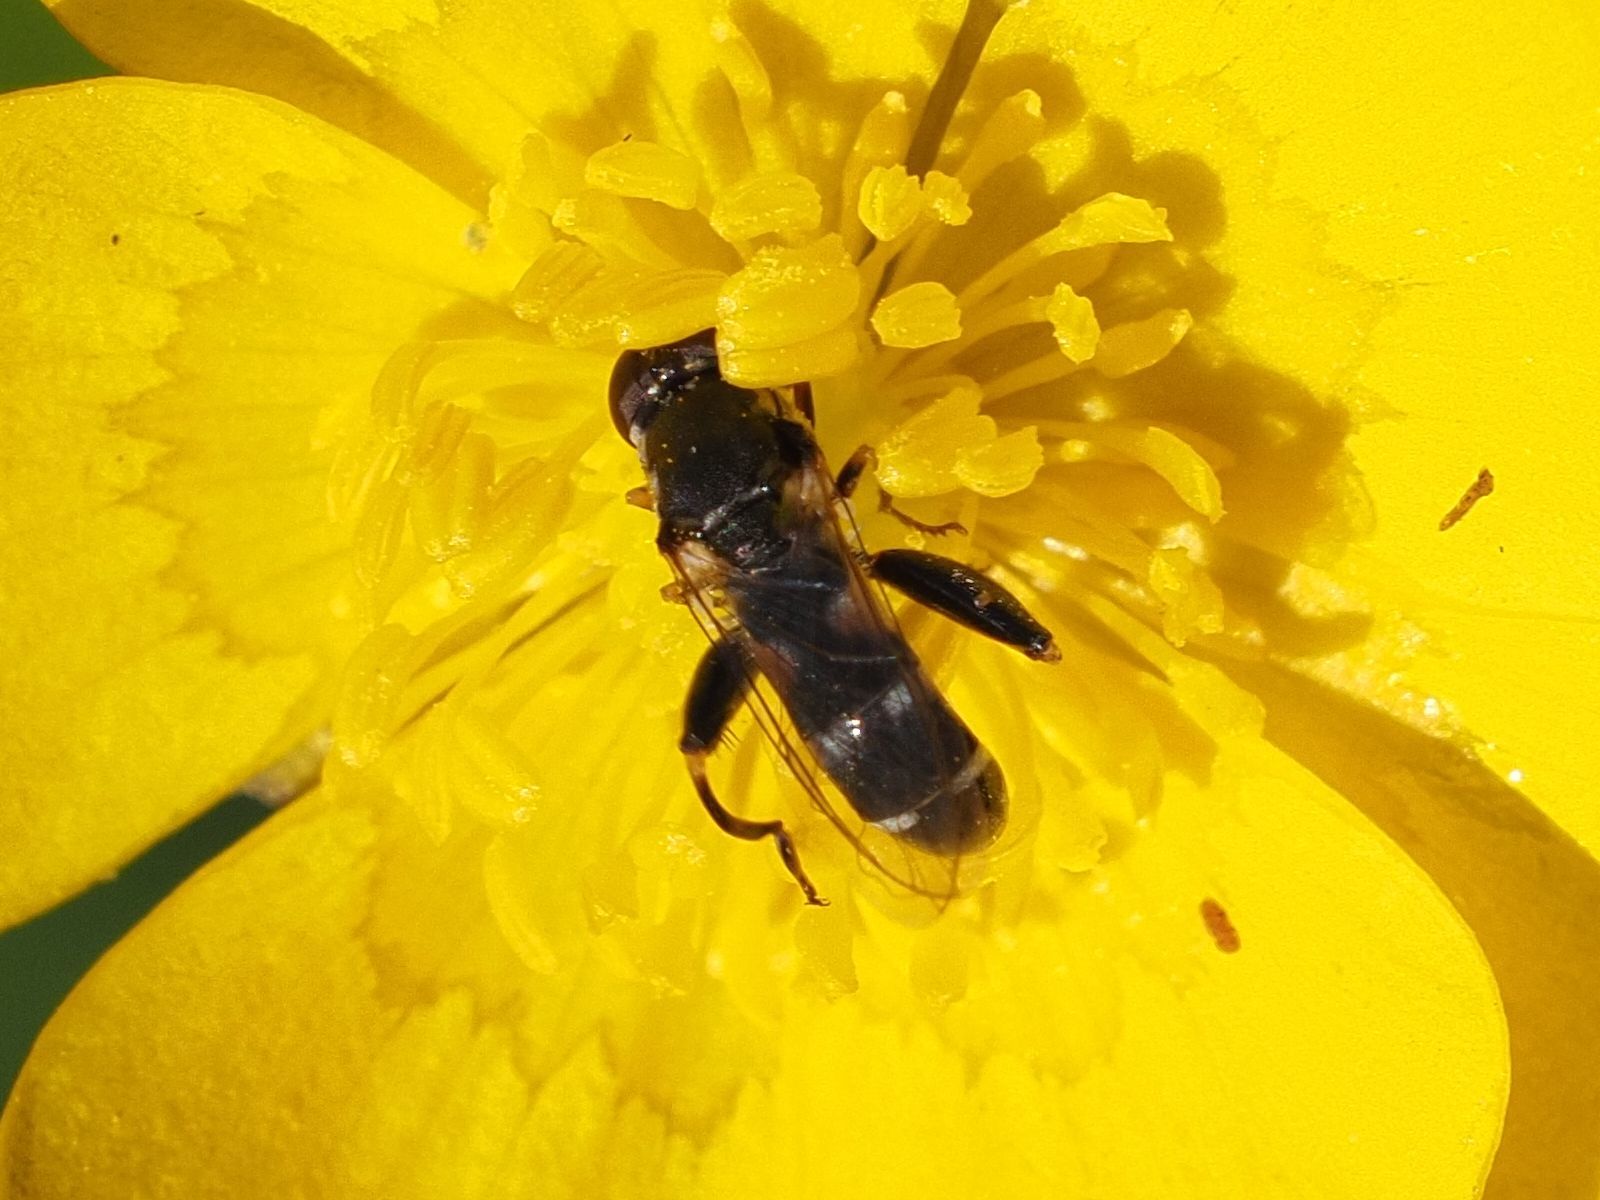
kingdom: Animalia
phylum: Arthropoda
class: Insecta
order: Diptera
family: Syrphidae
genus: Syritta
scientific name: Syritta pipiens
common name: Hover fly
